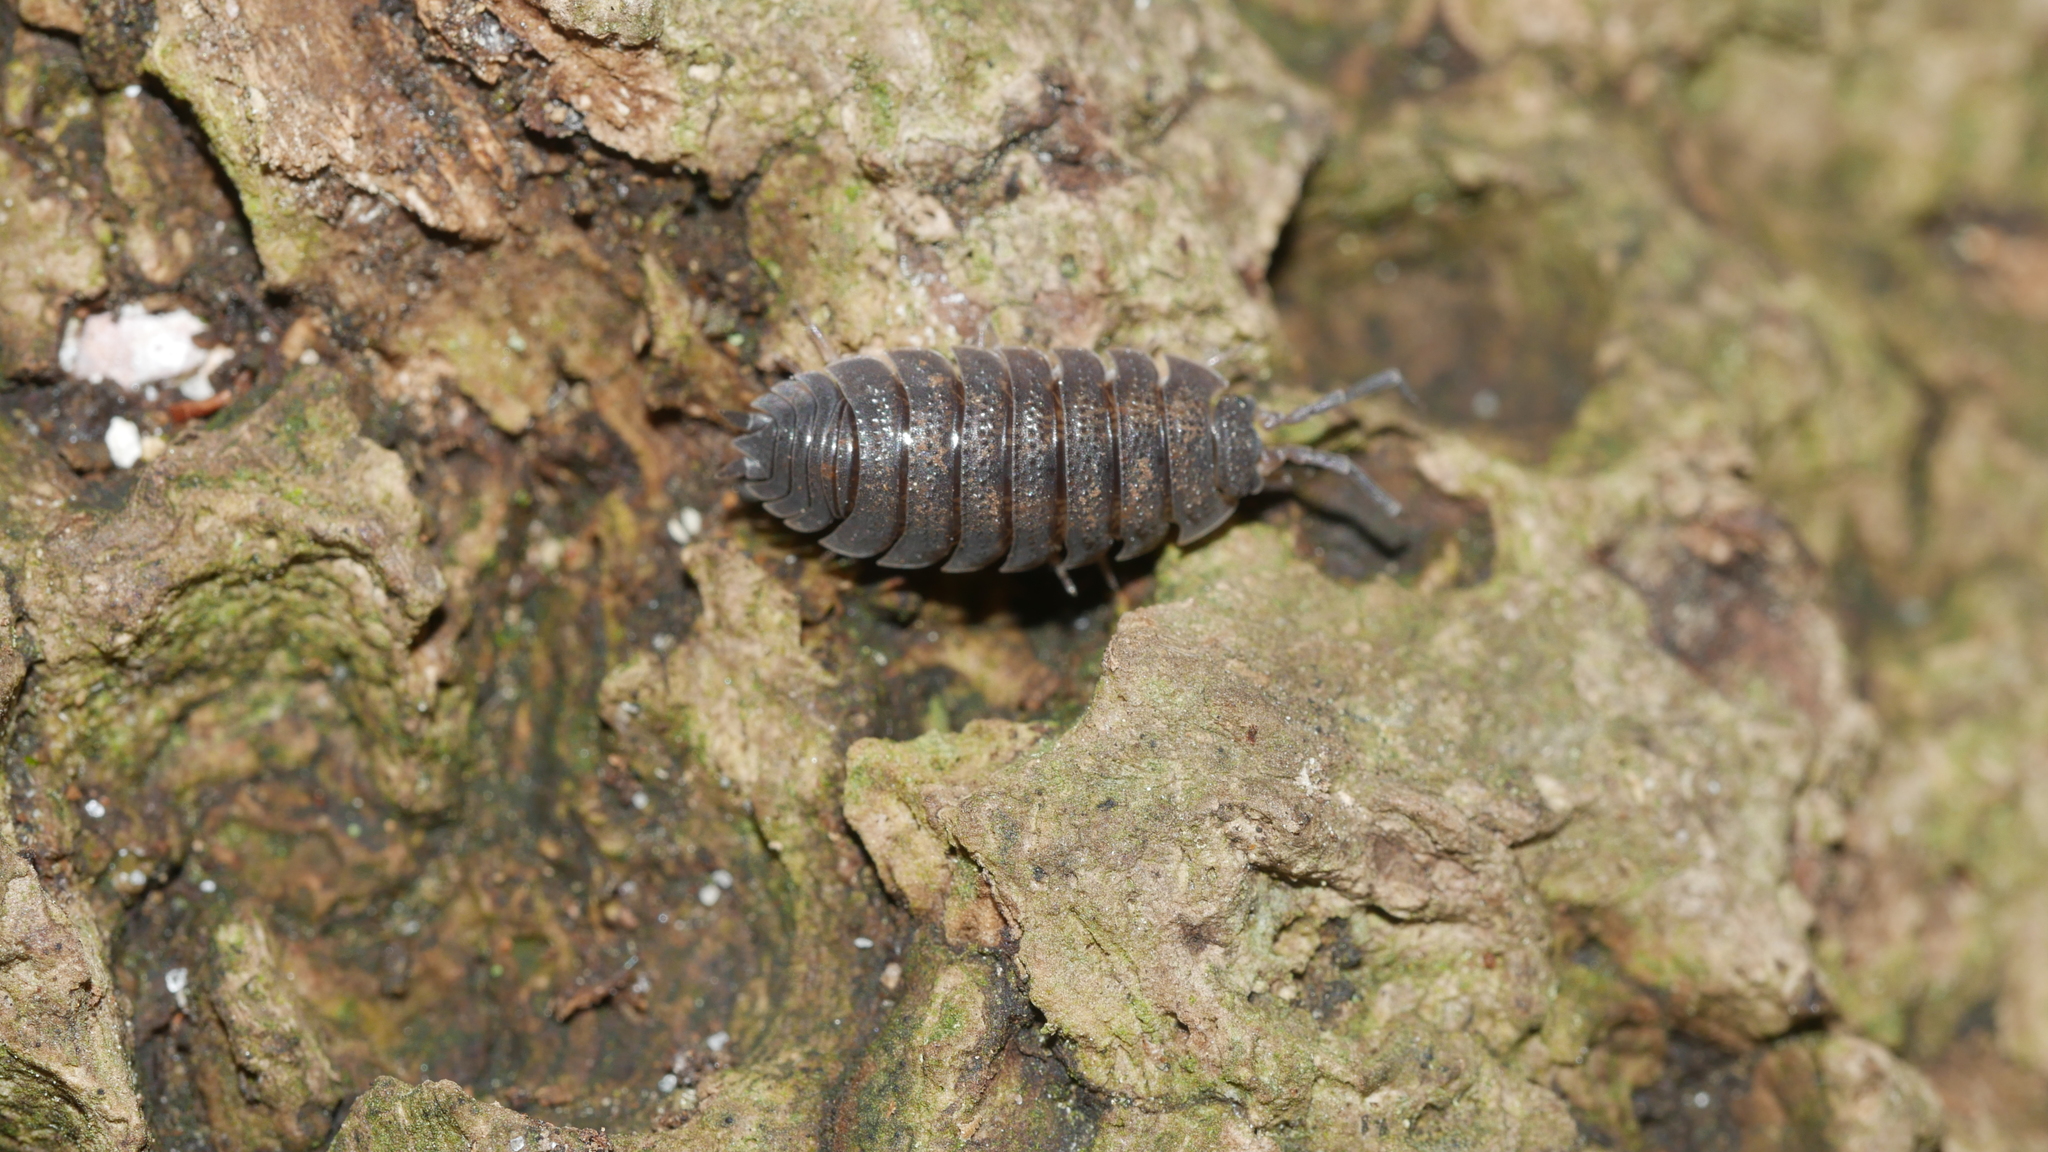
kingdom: Animalia
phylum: Arthropoda
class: Malacostraca
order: Isopoda
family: Porcellionidae
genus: Porcellio
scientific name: Porcellio scaber
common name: Common rough woodlouse
